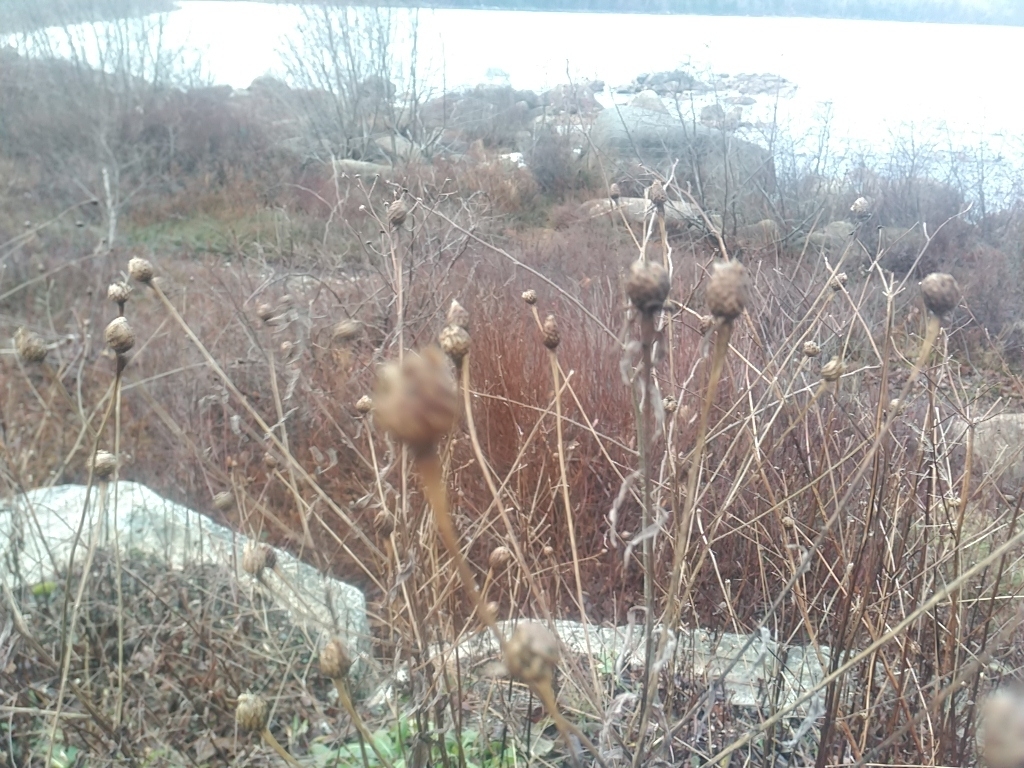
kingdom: Plantae
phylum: Tracheophyta
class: Magnoliopsida
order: Asterales
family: Asteraceae
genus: Centaurea
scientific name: Centaurea nigra
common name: Lesser knapweed
